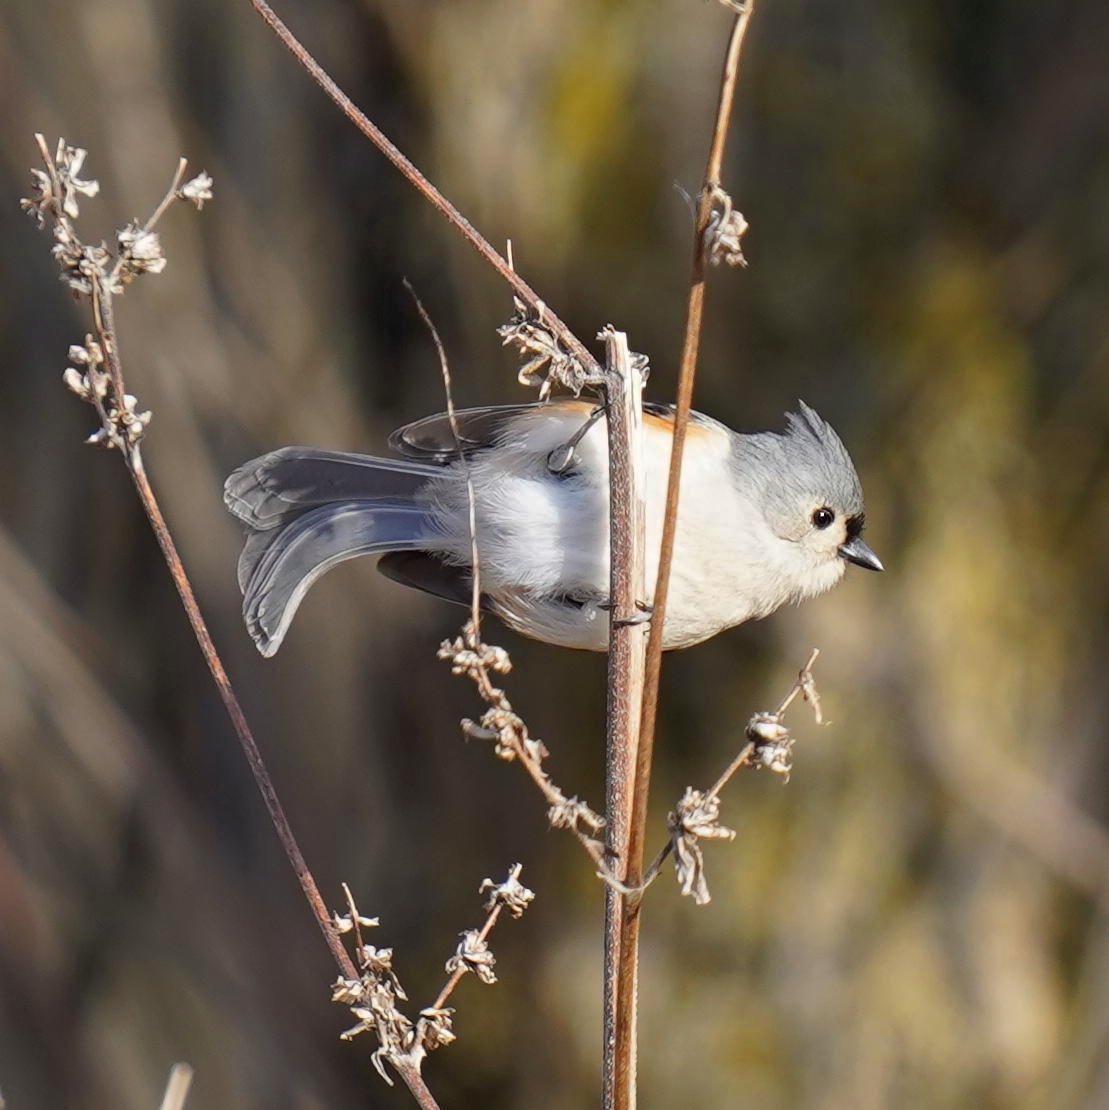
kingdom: Animalia
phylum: Chordata
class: Aves
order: Passeriformes
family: Paridae
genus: Baeolophus
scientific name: Baeolophus bicolor
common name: Tufted titmouse
